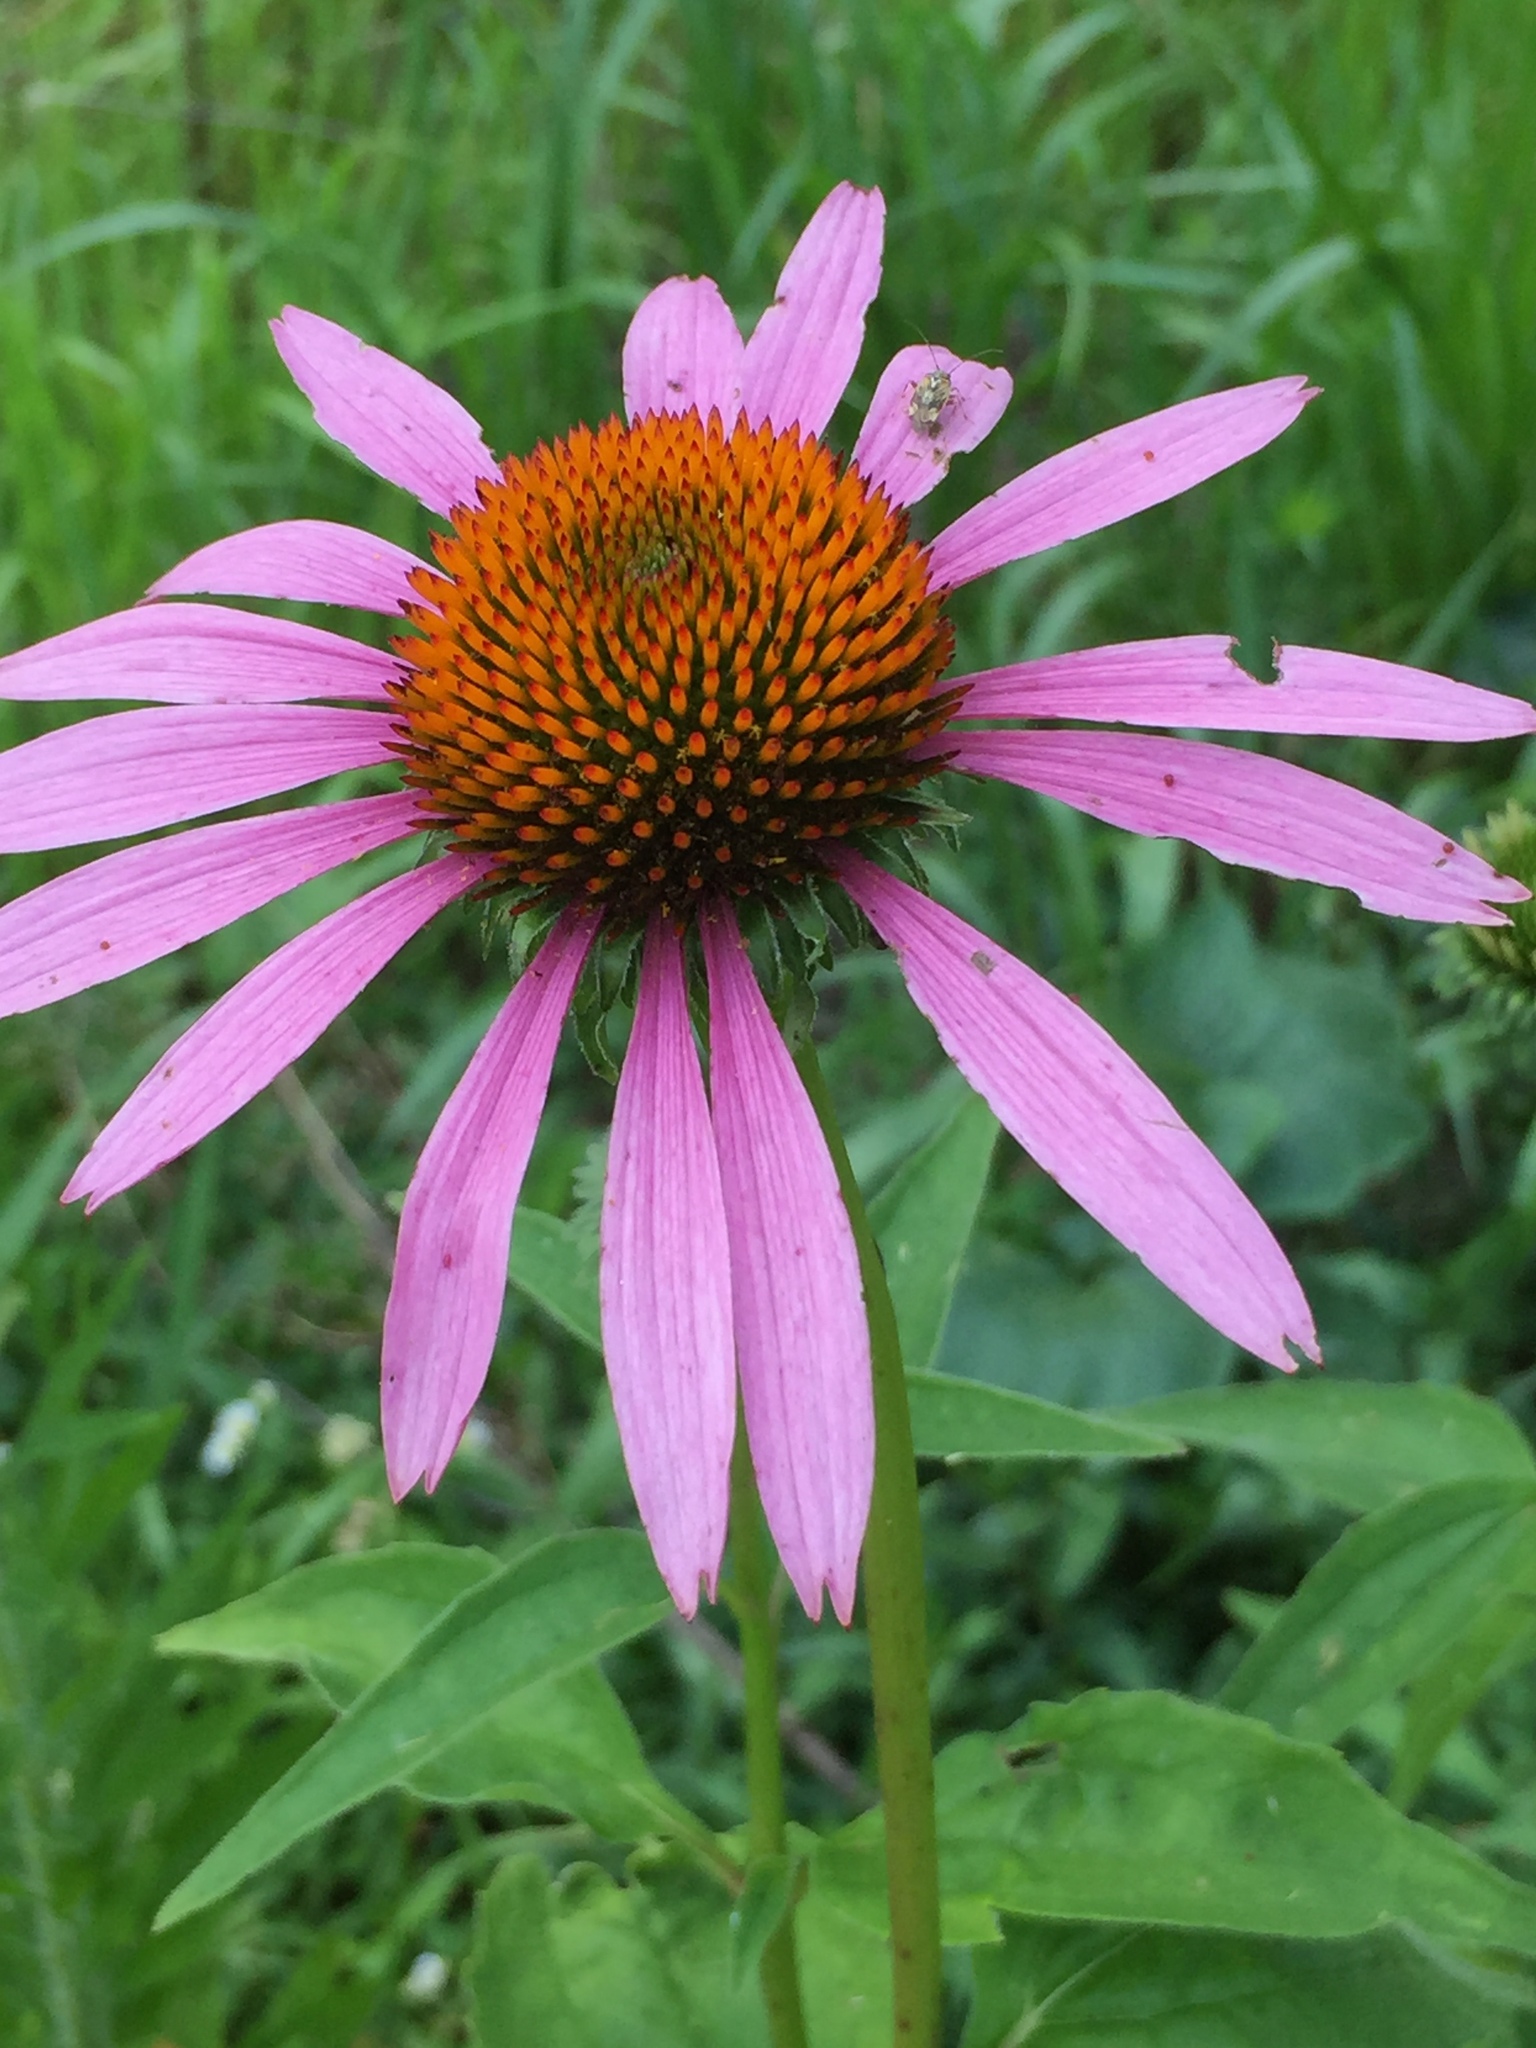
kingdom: Plantae
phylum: Tracheophyta
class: Magnoliopsida
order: Asterales
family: Asteraceae
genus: Echinacea
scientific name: Echinacea purpurea
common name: Broad-leaved purple coneflower
